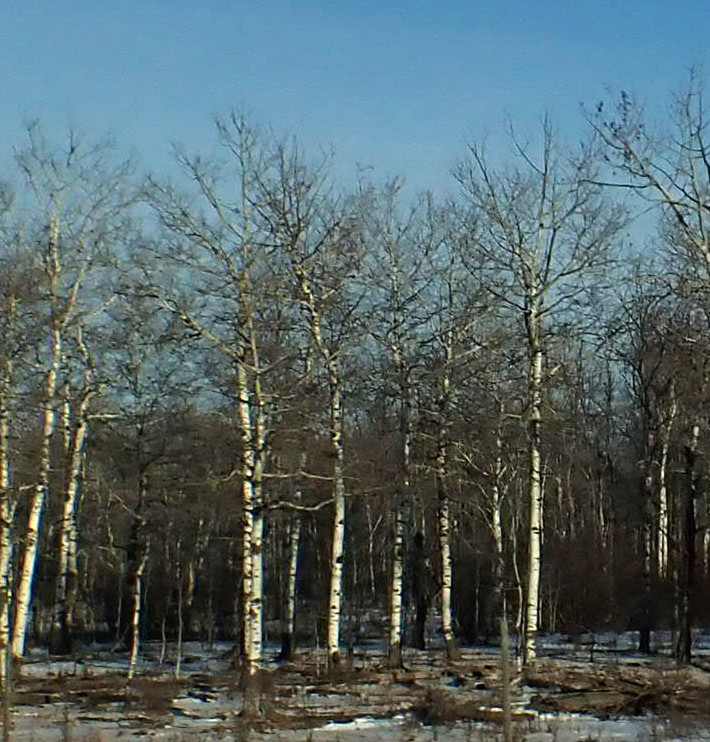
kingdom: Plantae
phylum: Tracheophyta
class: Magnoliopsida
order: Malpighiales
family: Salicaceae
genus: Populus
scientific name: Populus tremuloides
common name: Quaking aspen
